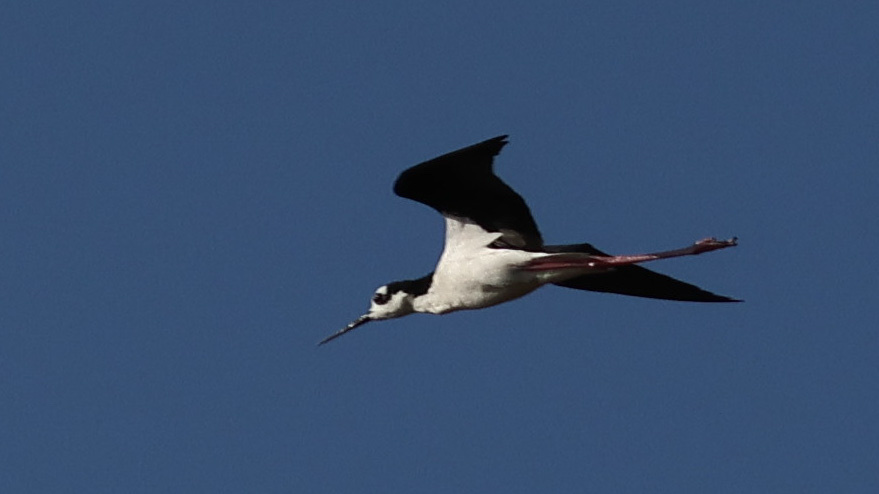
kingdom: Animalia
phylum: Chordata
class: Aves
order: Charadriiformes
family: Recurvirostridae
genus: Himantopus
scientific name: Himantopus mexicanus
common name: Black-necked stilt
